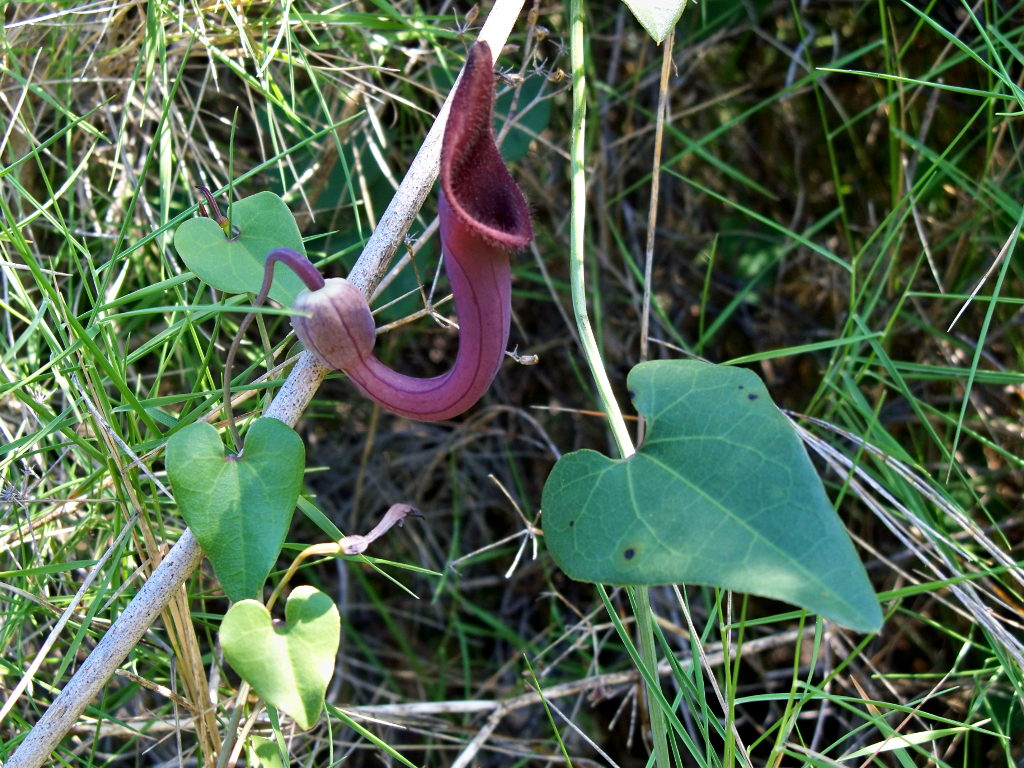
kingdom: Plantae
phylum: Tracheophyta
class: Magnoliopsida
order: Piperales
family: Aristolochiaceae
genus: Aristolochia
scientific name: Aristolochia baetica
